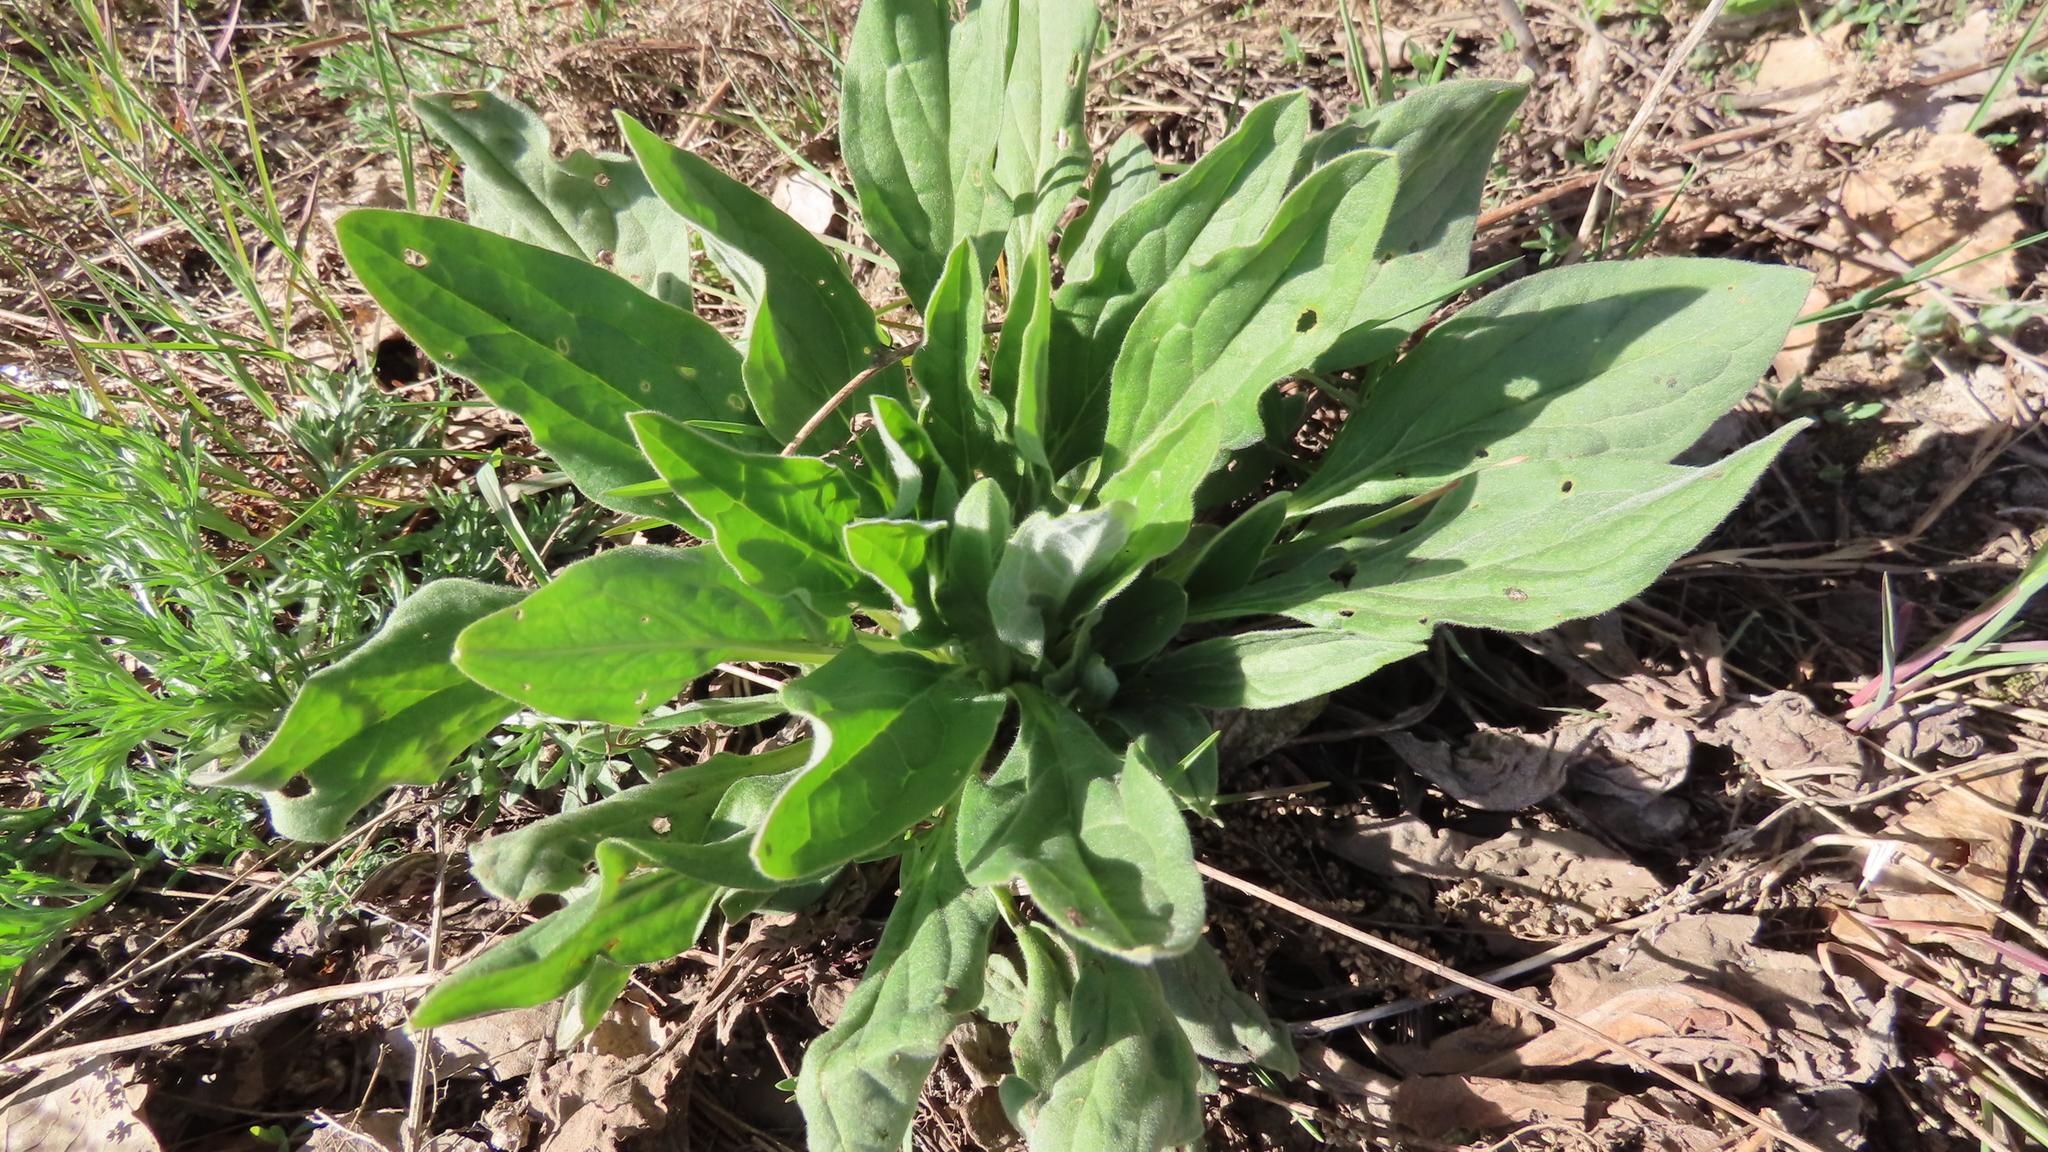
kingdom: Plantae
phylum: Tracheophyta
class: Magnoliopsida
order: Boraginales
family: Boraginaceae
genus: Cynoglossum
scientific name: Cynoglossum officinale
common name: Hound's-tongue
